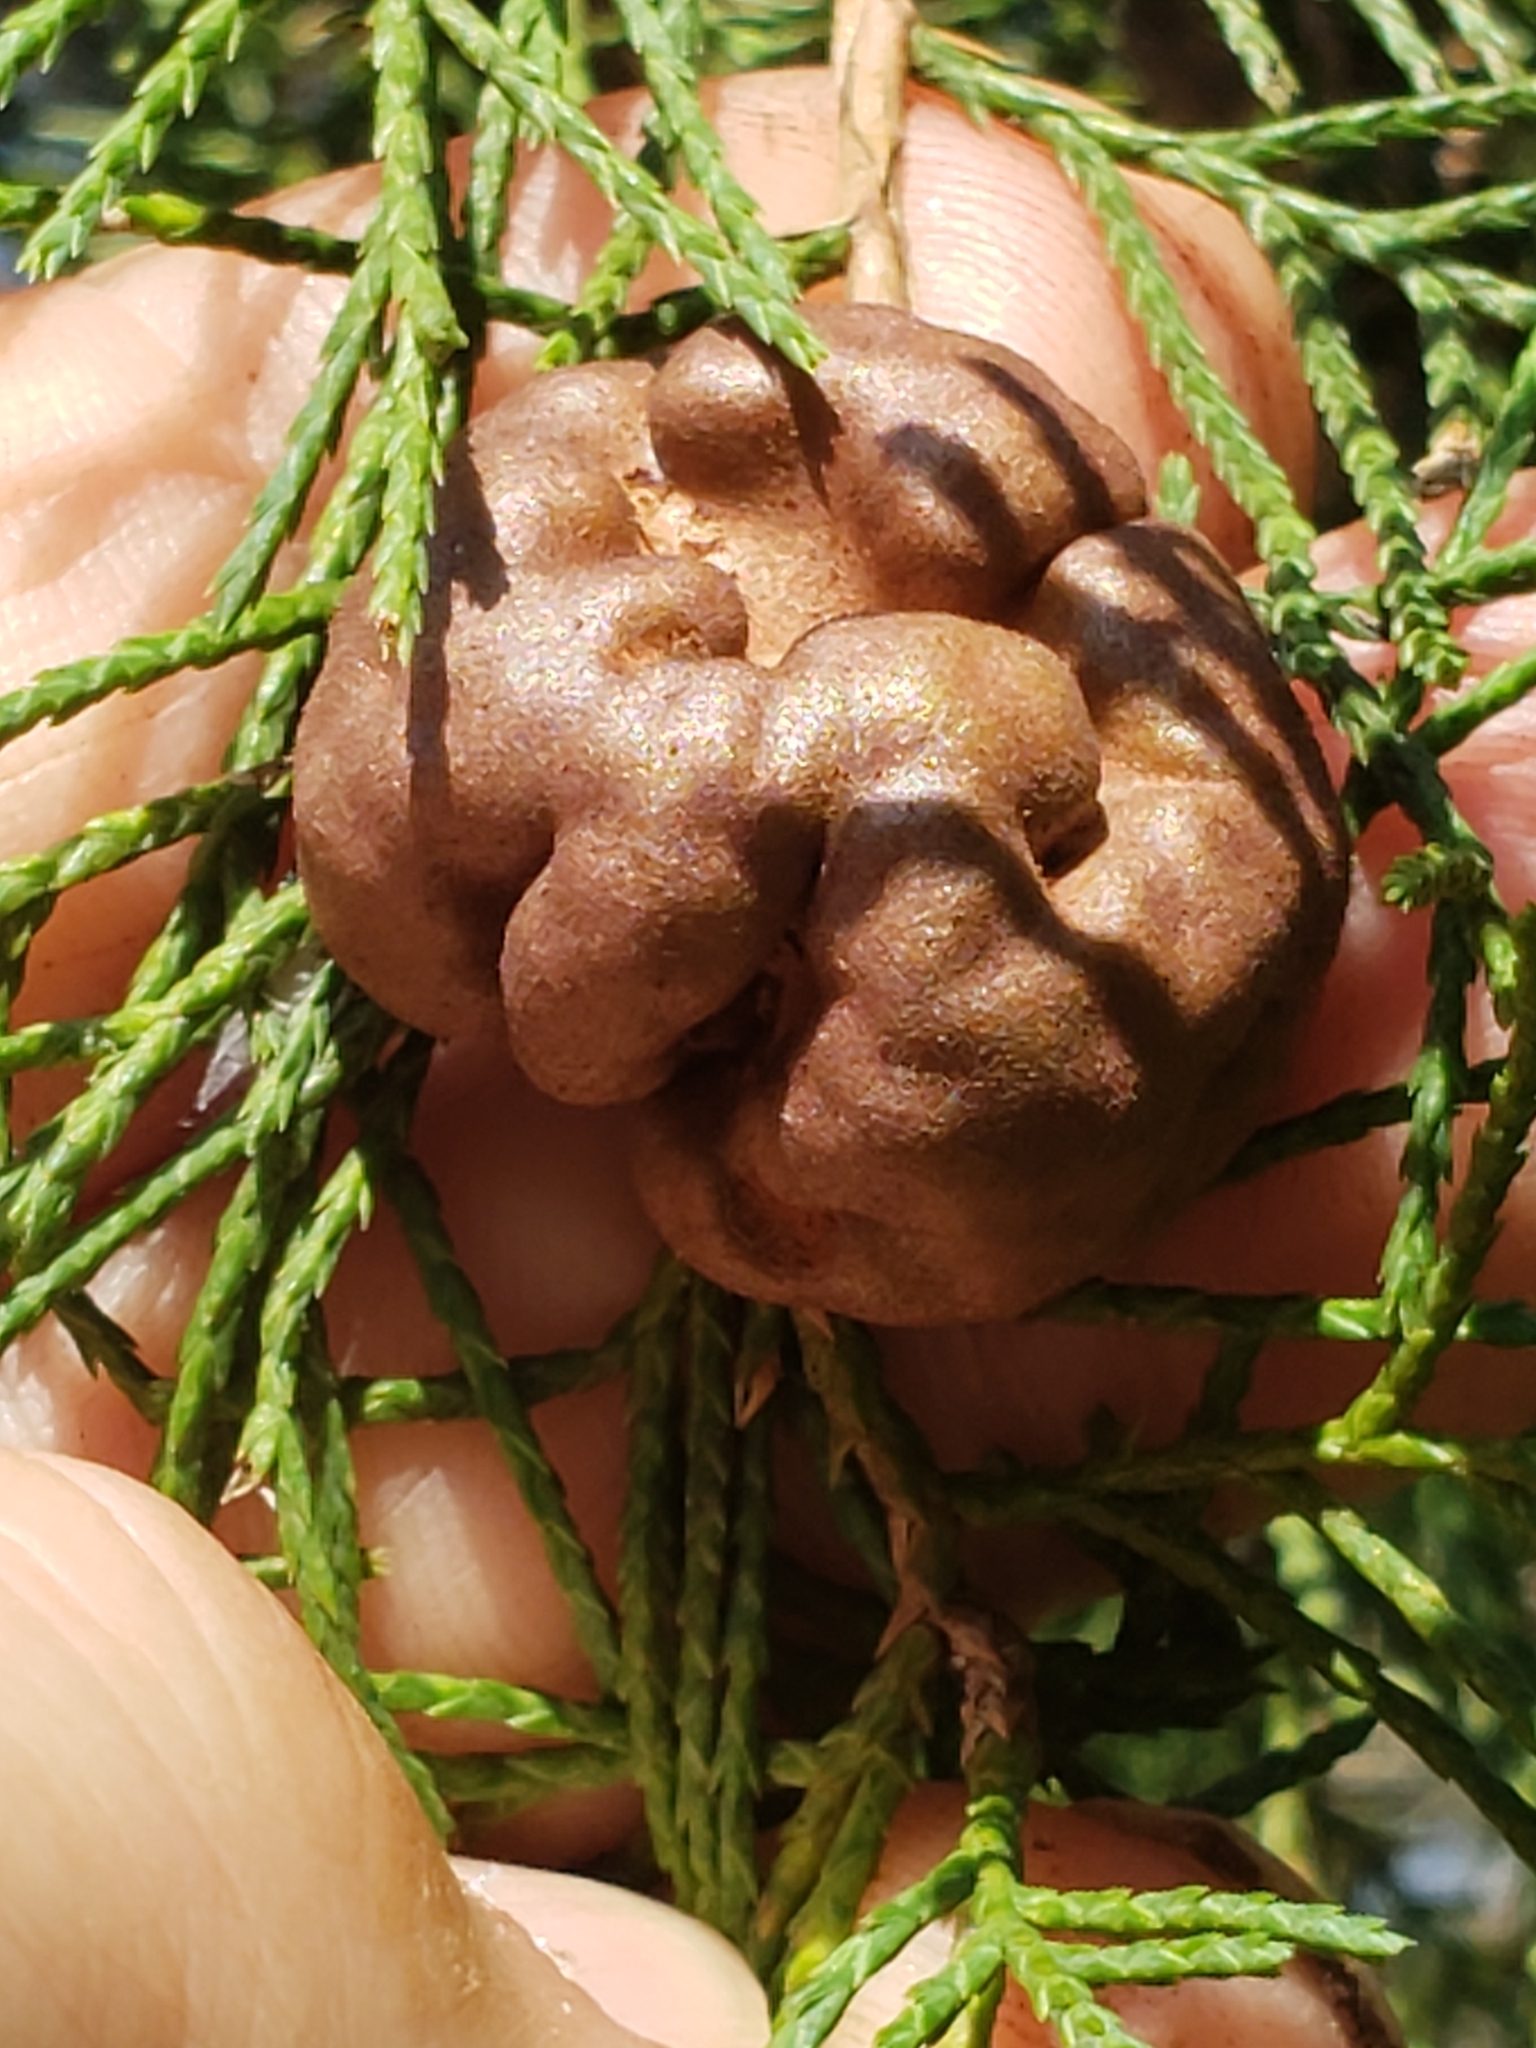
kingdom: Fungi
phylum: Basidiomycota
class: Pucciniomycetes
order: Pucciniales
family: Gymnosporangiaceae
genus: Gymnosporangium
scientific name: Gymnosporangium juniperi-virginianae
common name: Juniper-apple rust
